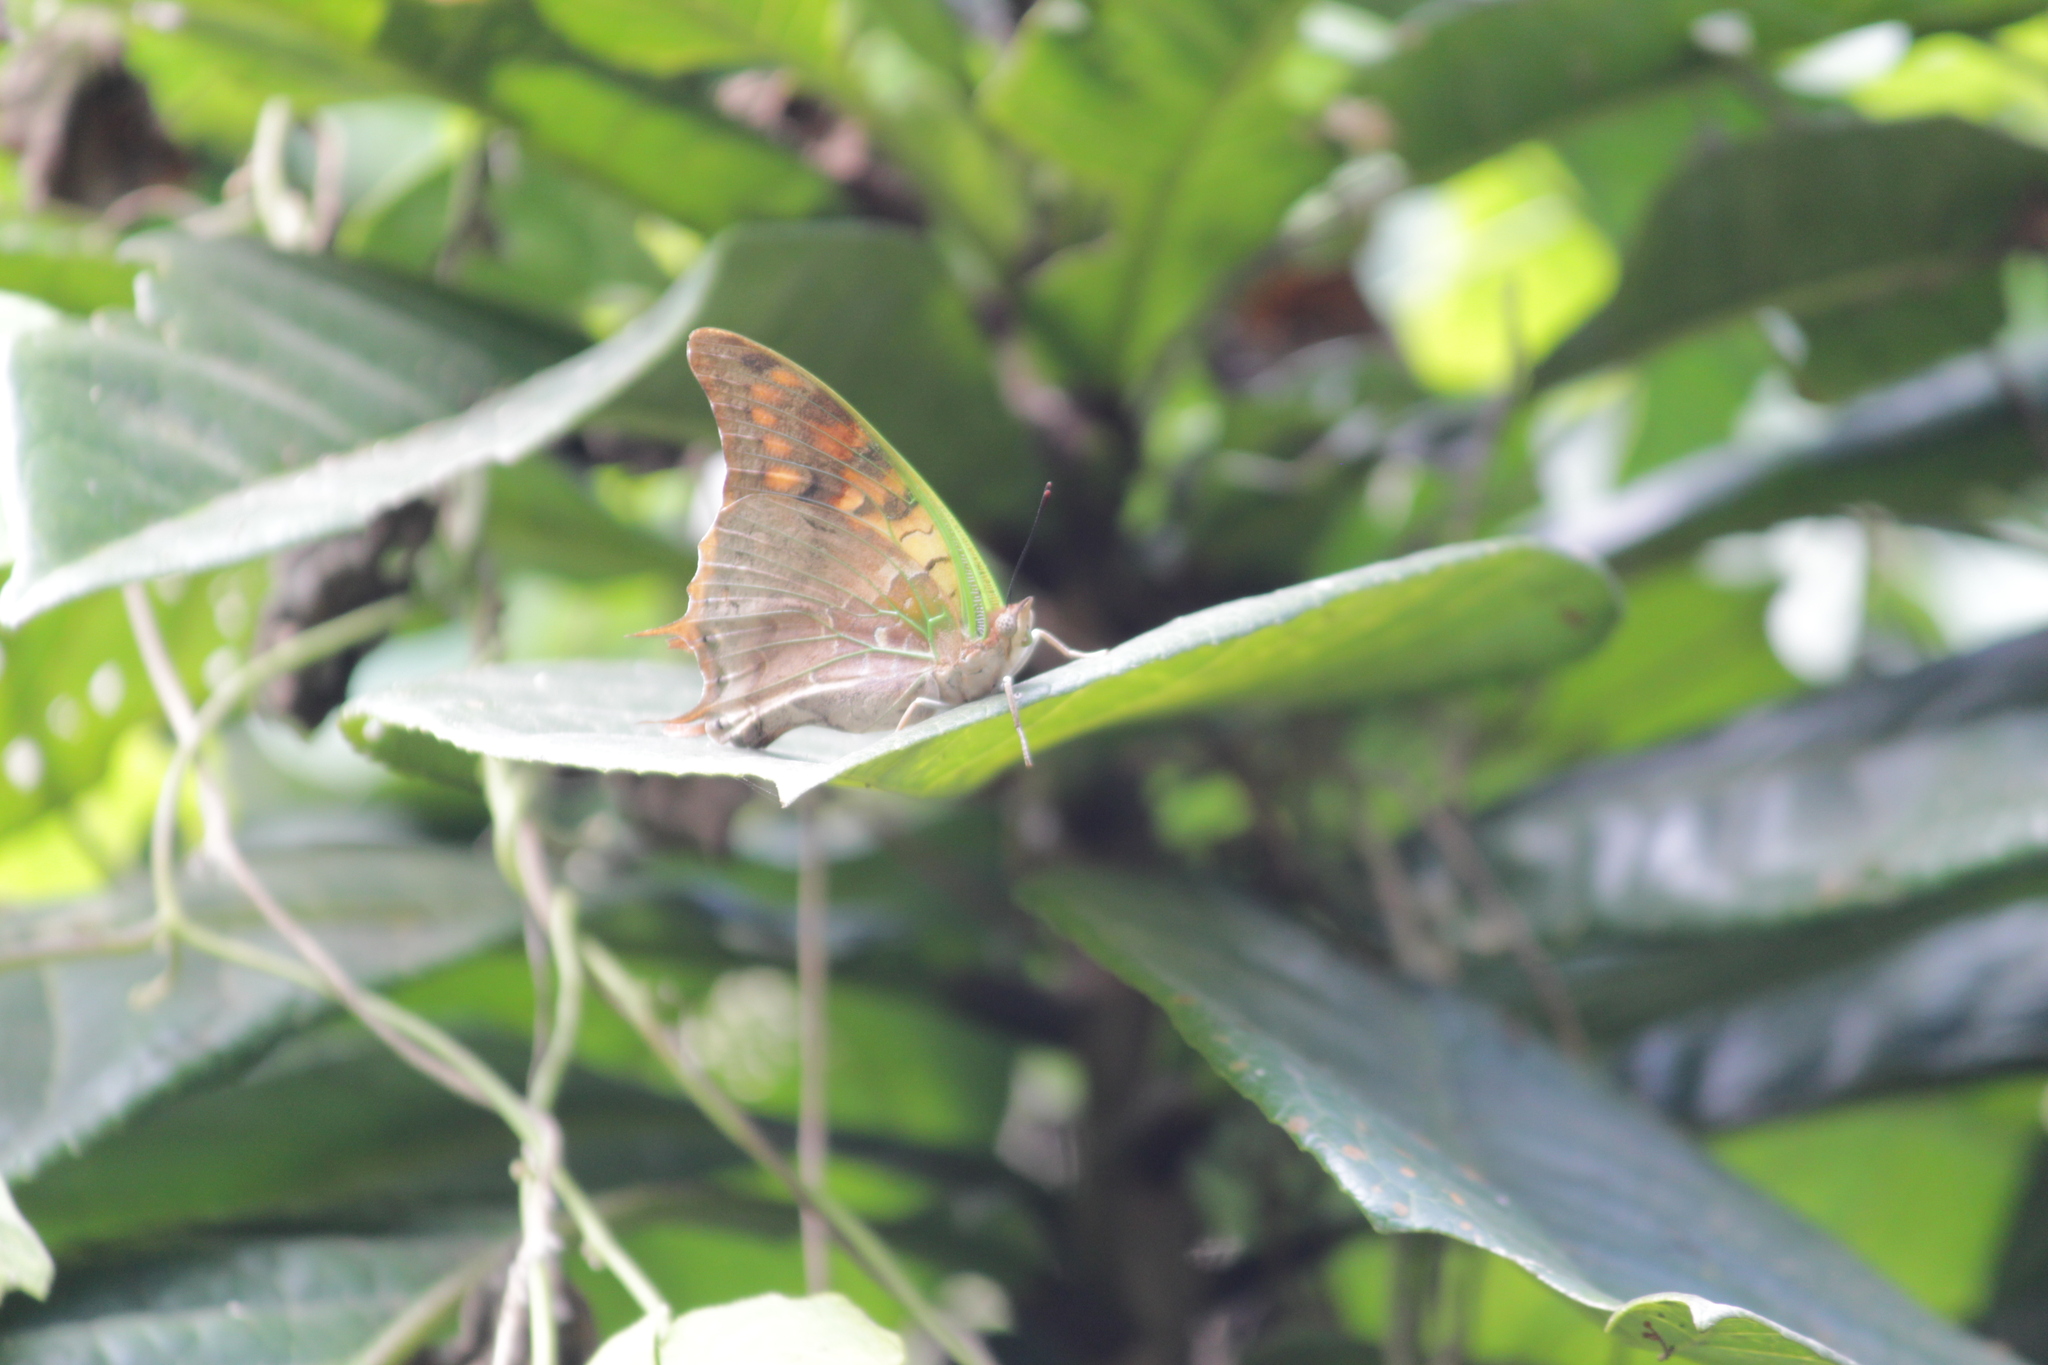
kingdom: Animalia
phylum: Arthropoda
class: Insecta
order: Lepidoptera
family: Nymphalidae
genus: Charaxes
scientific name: Charaxes candiope
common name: Green-veined charaxes
